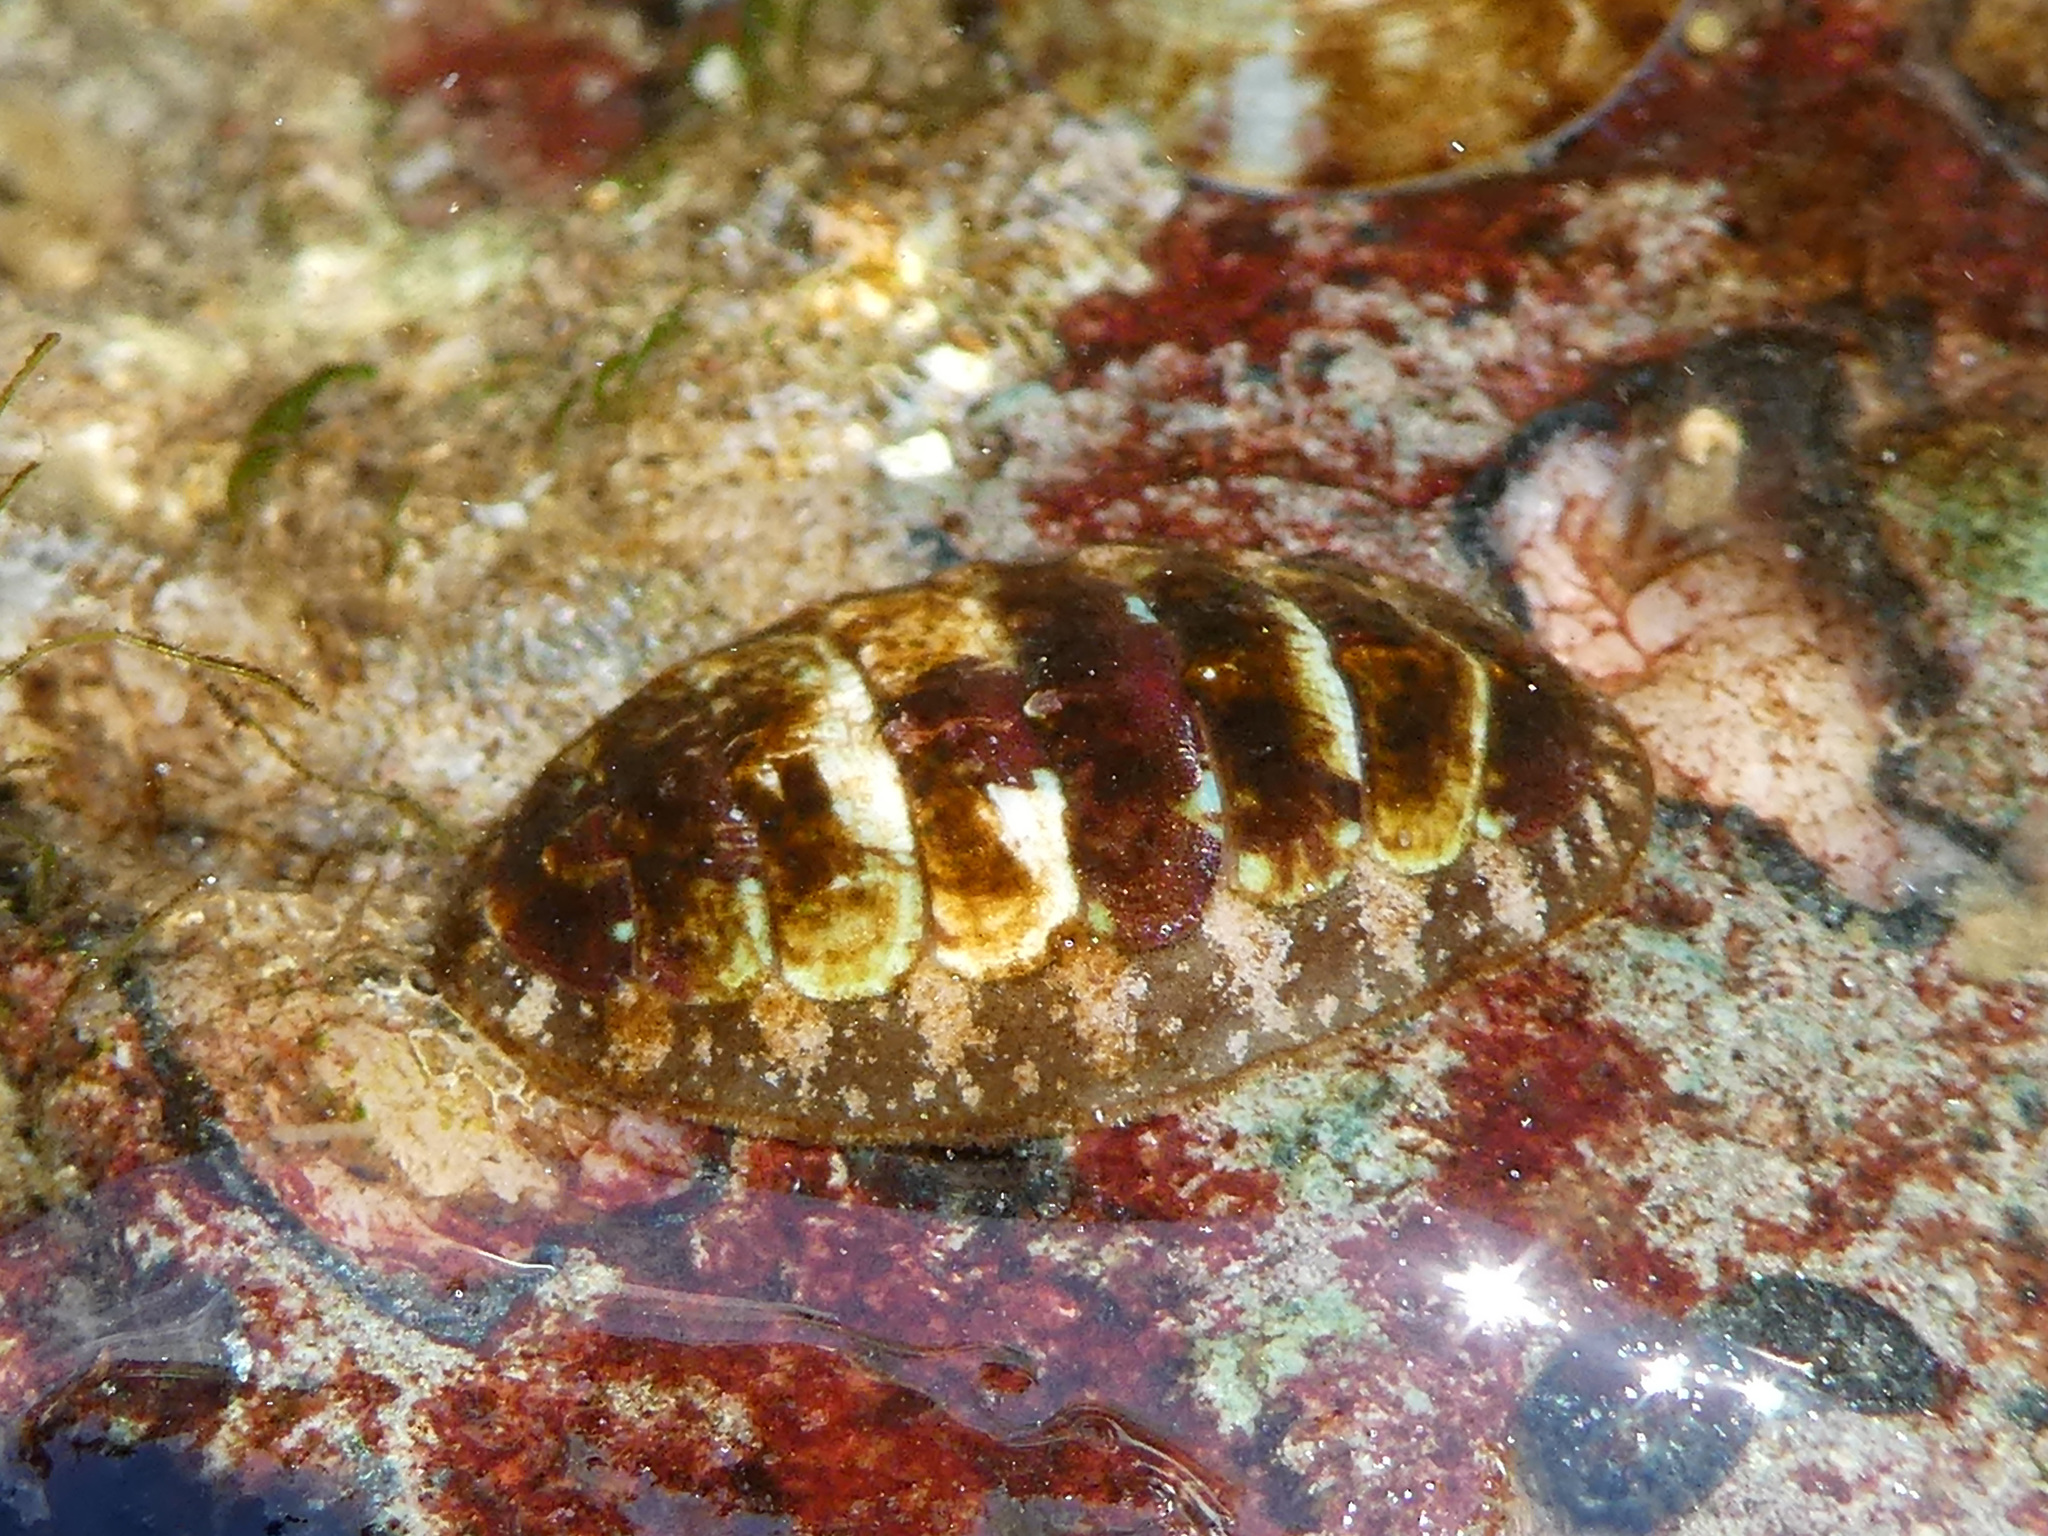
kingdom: Animalia
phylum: Mollusca
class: Polyplacophora
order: Chitonida
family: Tonicellidae
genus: Cyanoplax
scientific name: Cyanoplax dentiens
